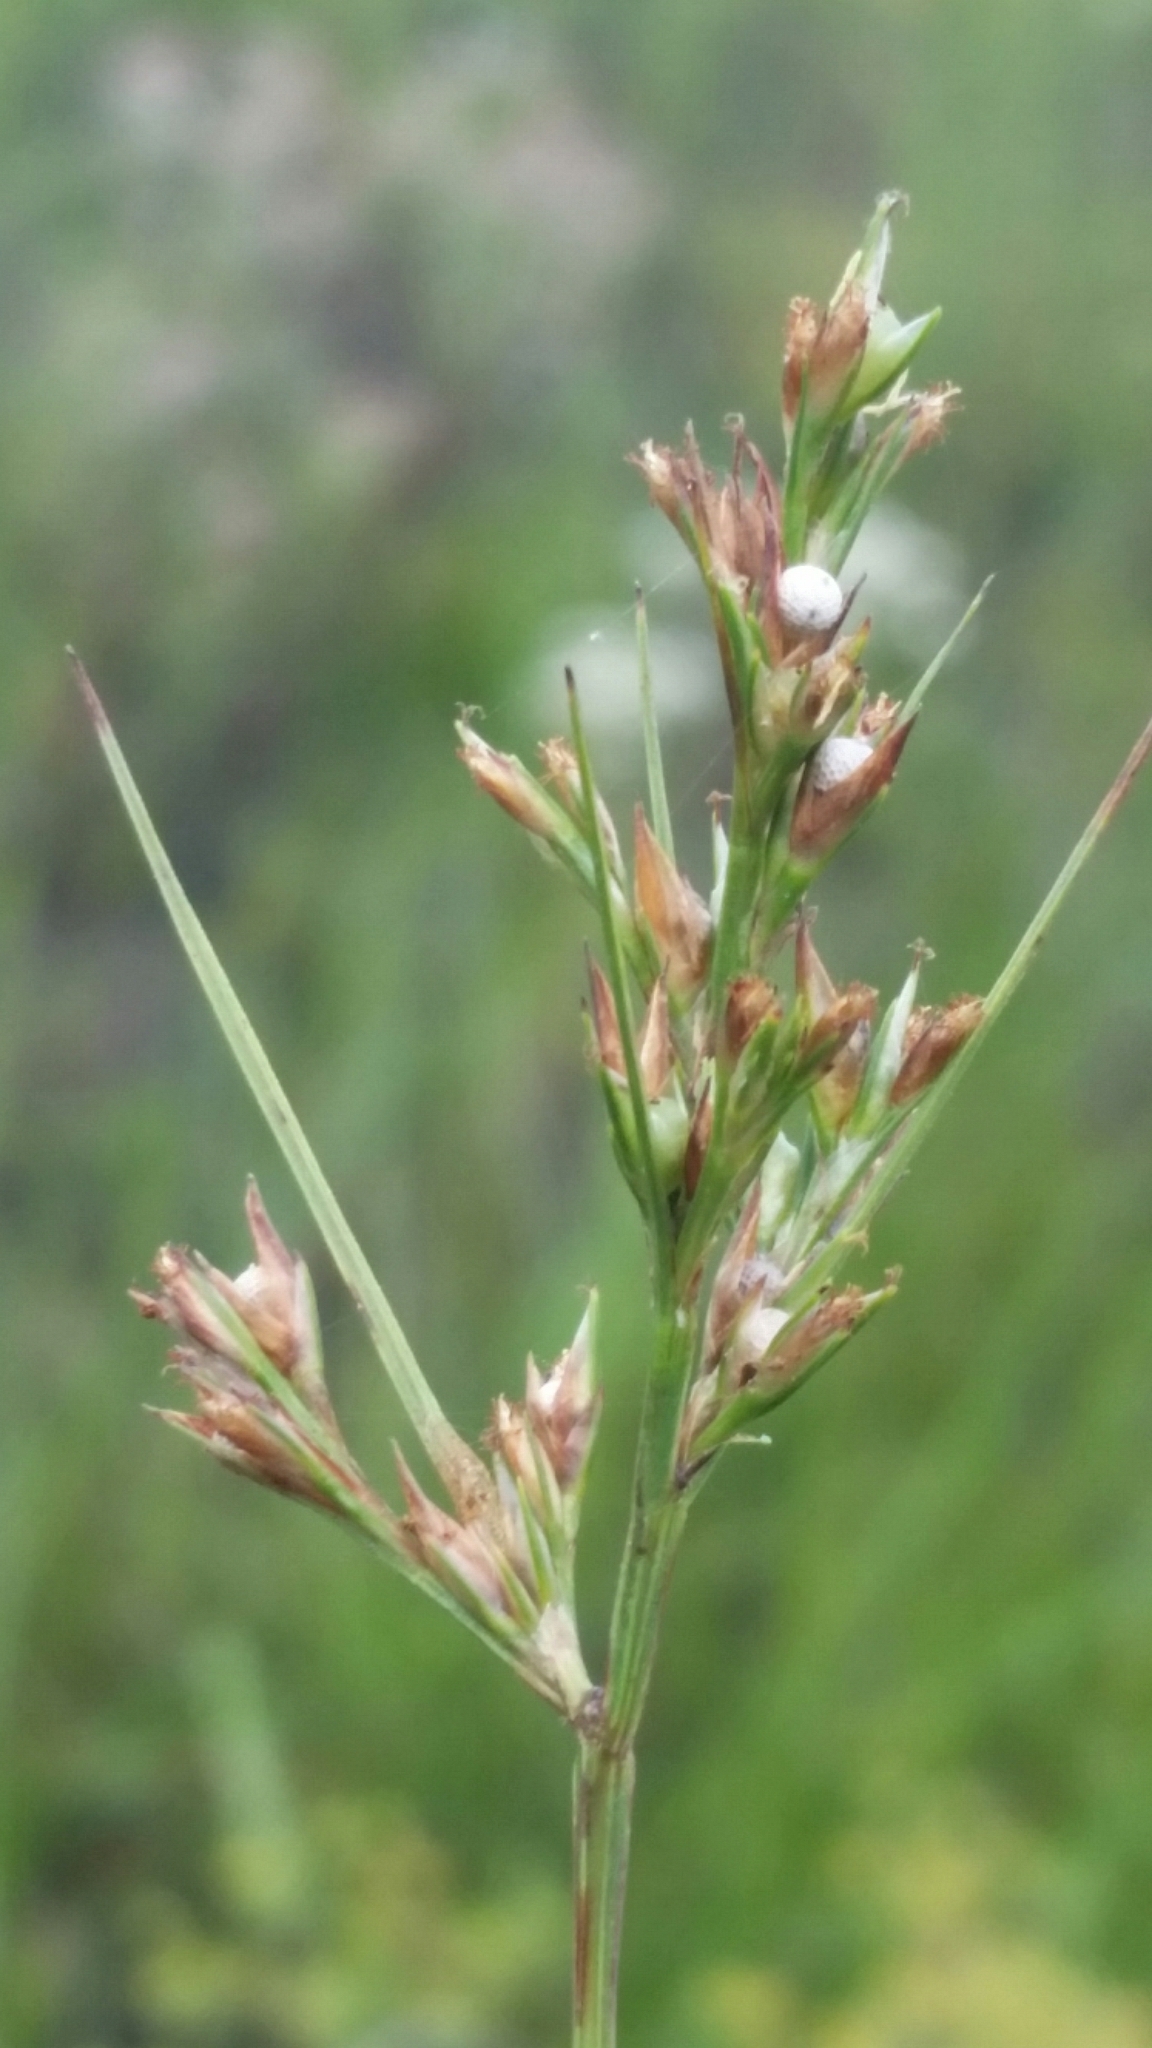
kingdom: Plantae
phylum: Tracheophyta
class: Liliopsida
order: Poales
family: Cyperaceae
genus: Scleria
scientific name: Scleria muehlenbergii
